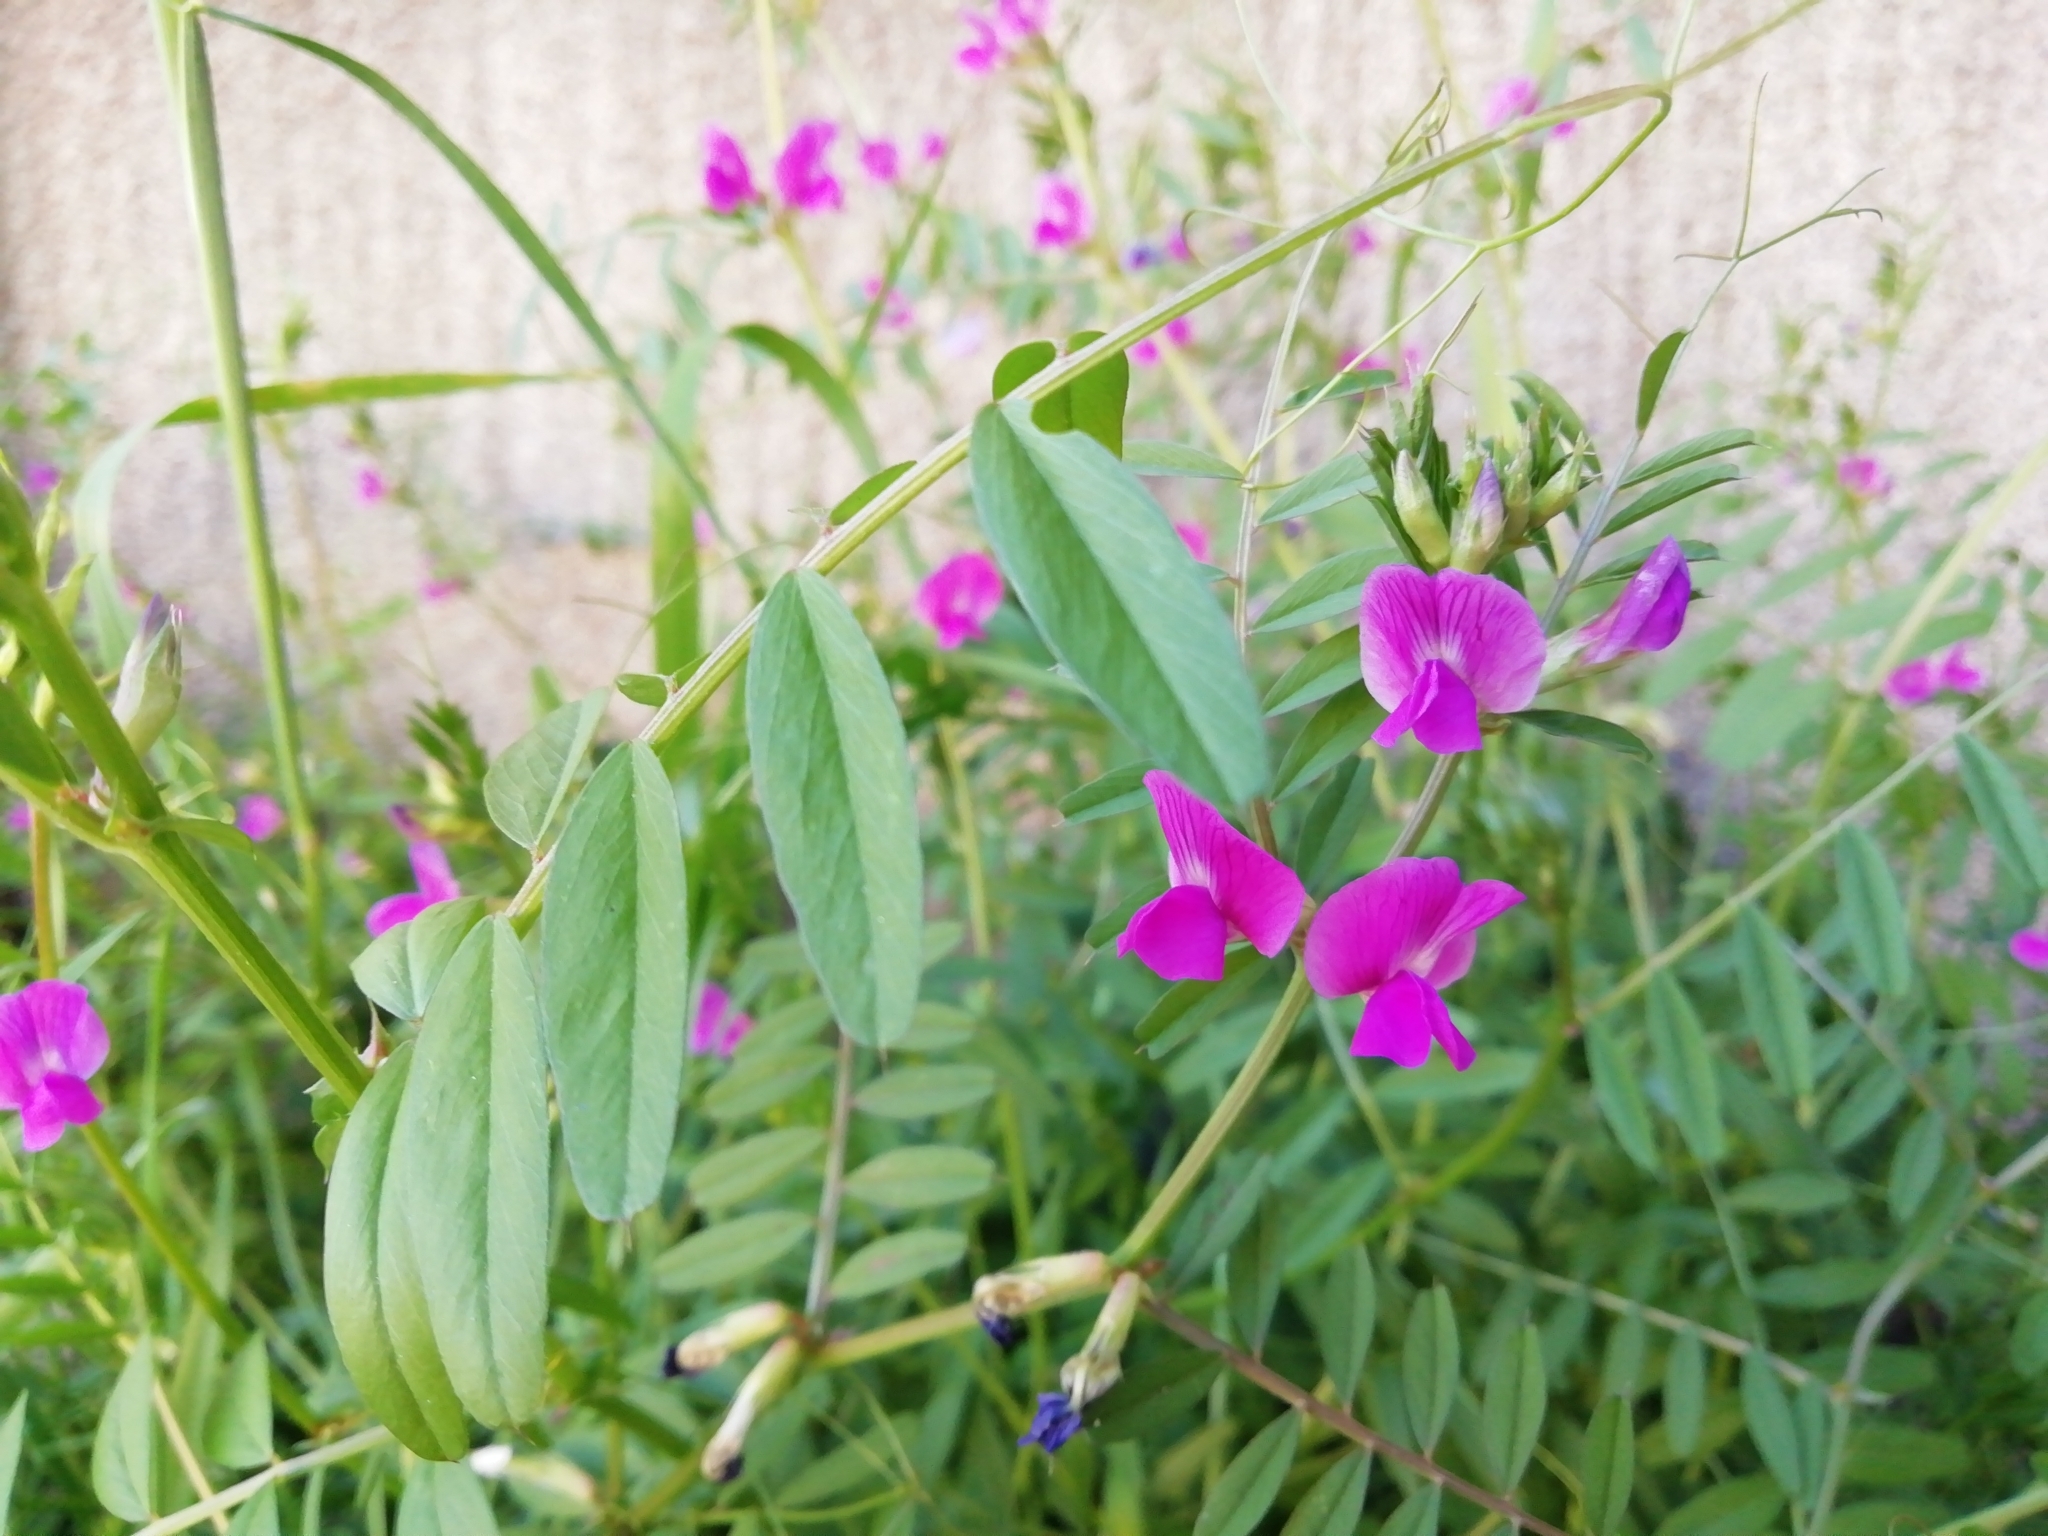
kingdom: Plantae
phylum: Tracheophyta
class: Magnoliopsida
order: Fabales
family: Fabaceae
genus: Vicia
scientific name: Vicia sativa
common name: Garden vetch
